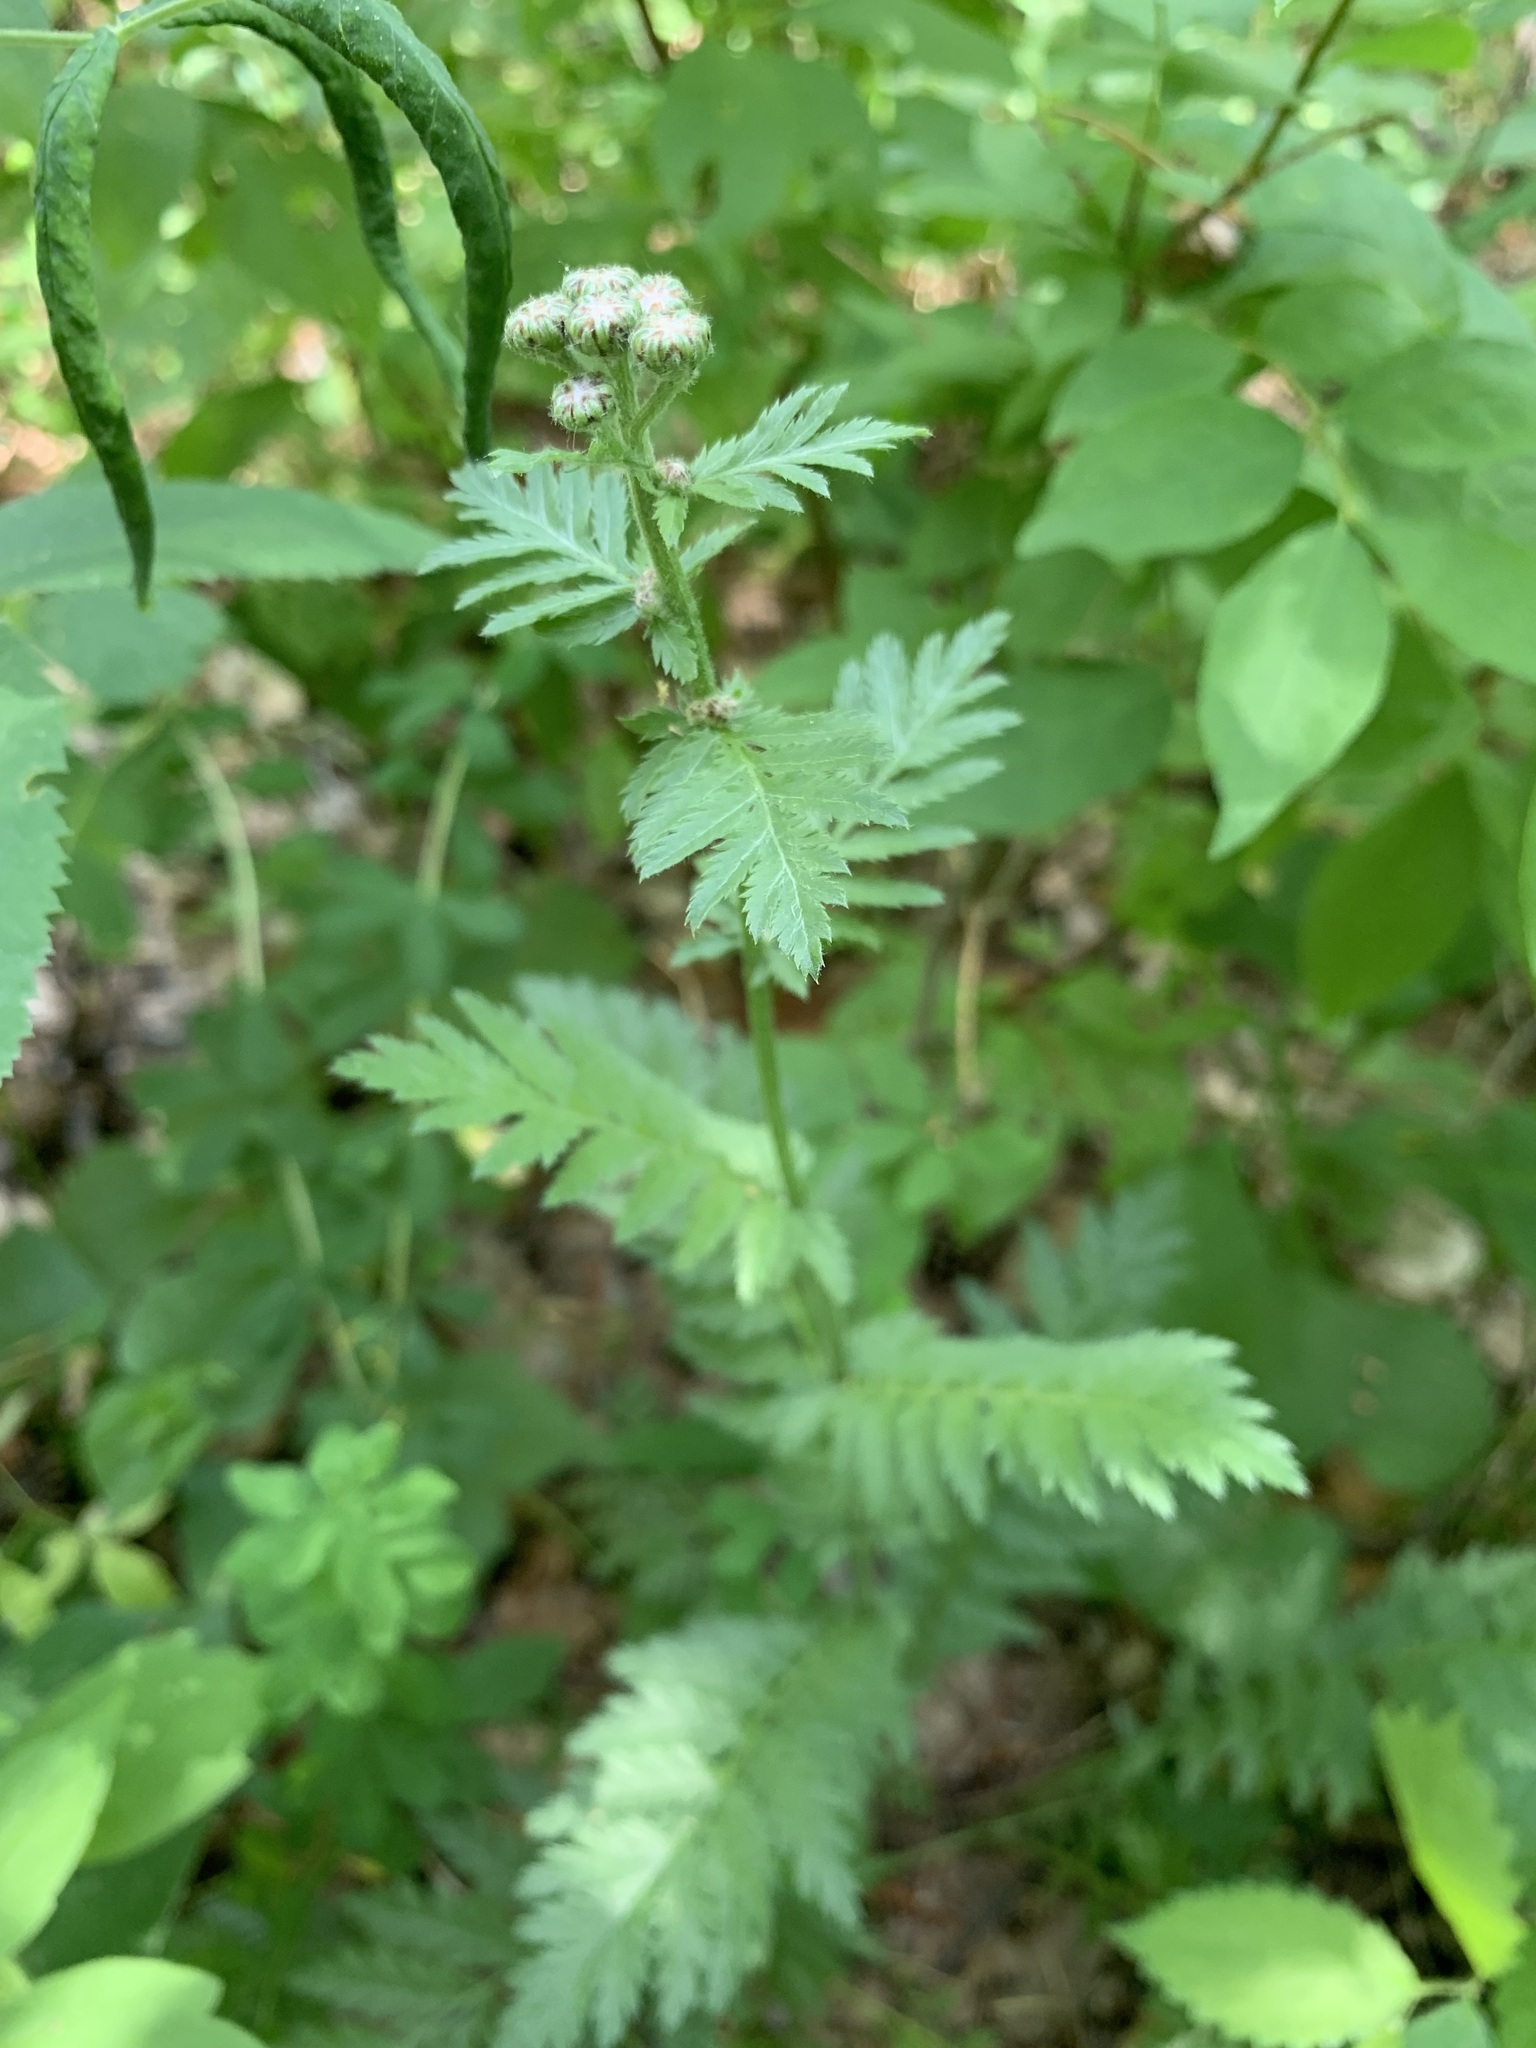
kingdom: Plantae
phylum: Tracheophyta
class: Magnoliopsida
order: Asterales
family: Asteraceae
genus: Tanacetum
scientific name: Tanacetum corymbosum
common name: Scentless feverfew
